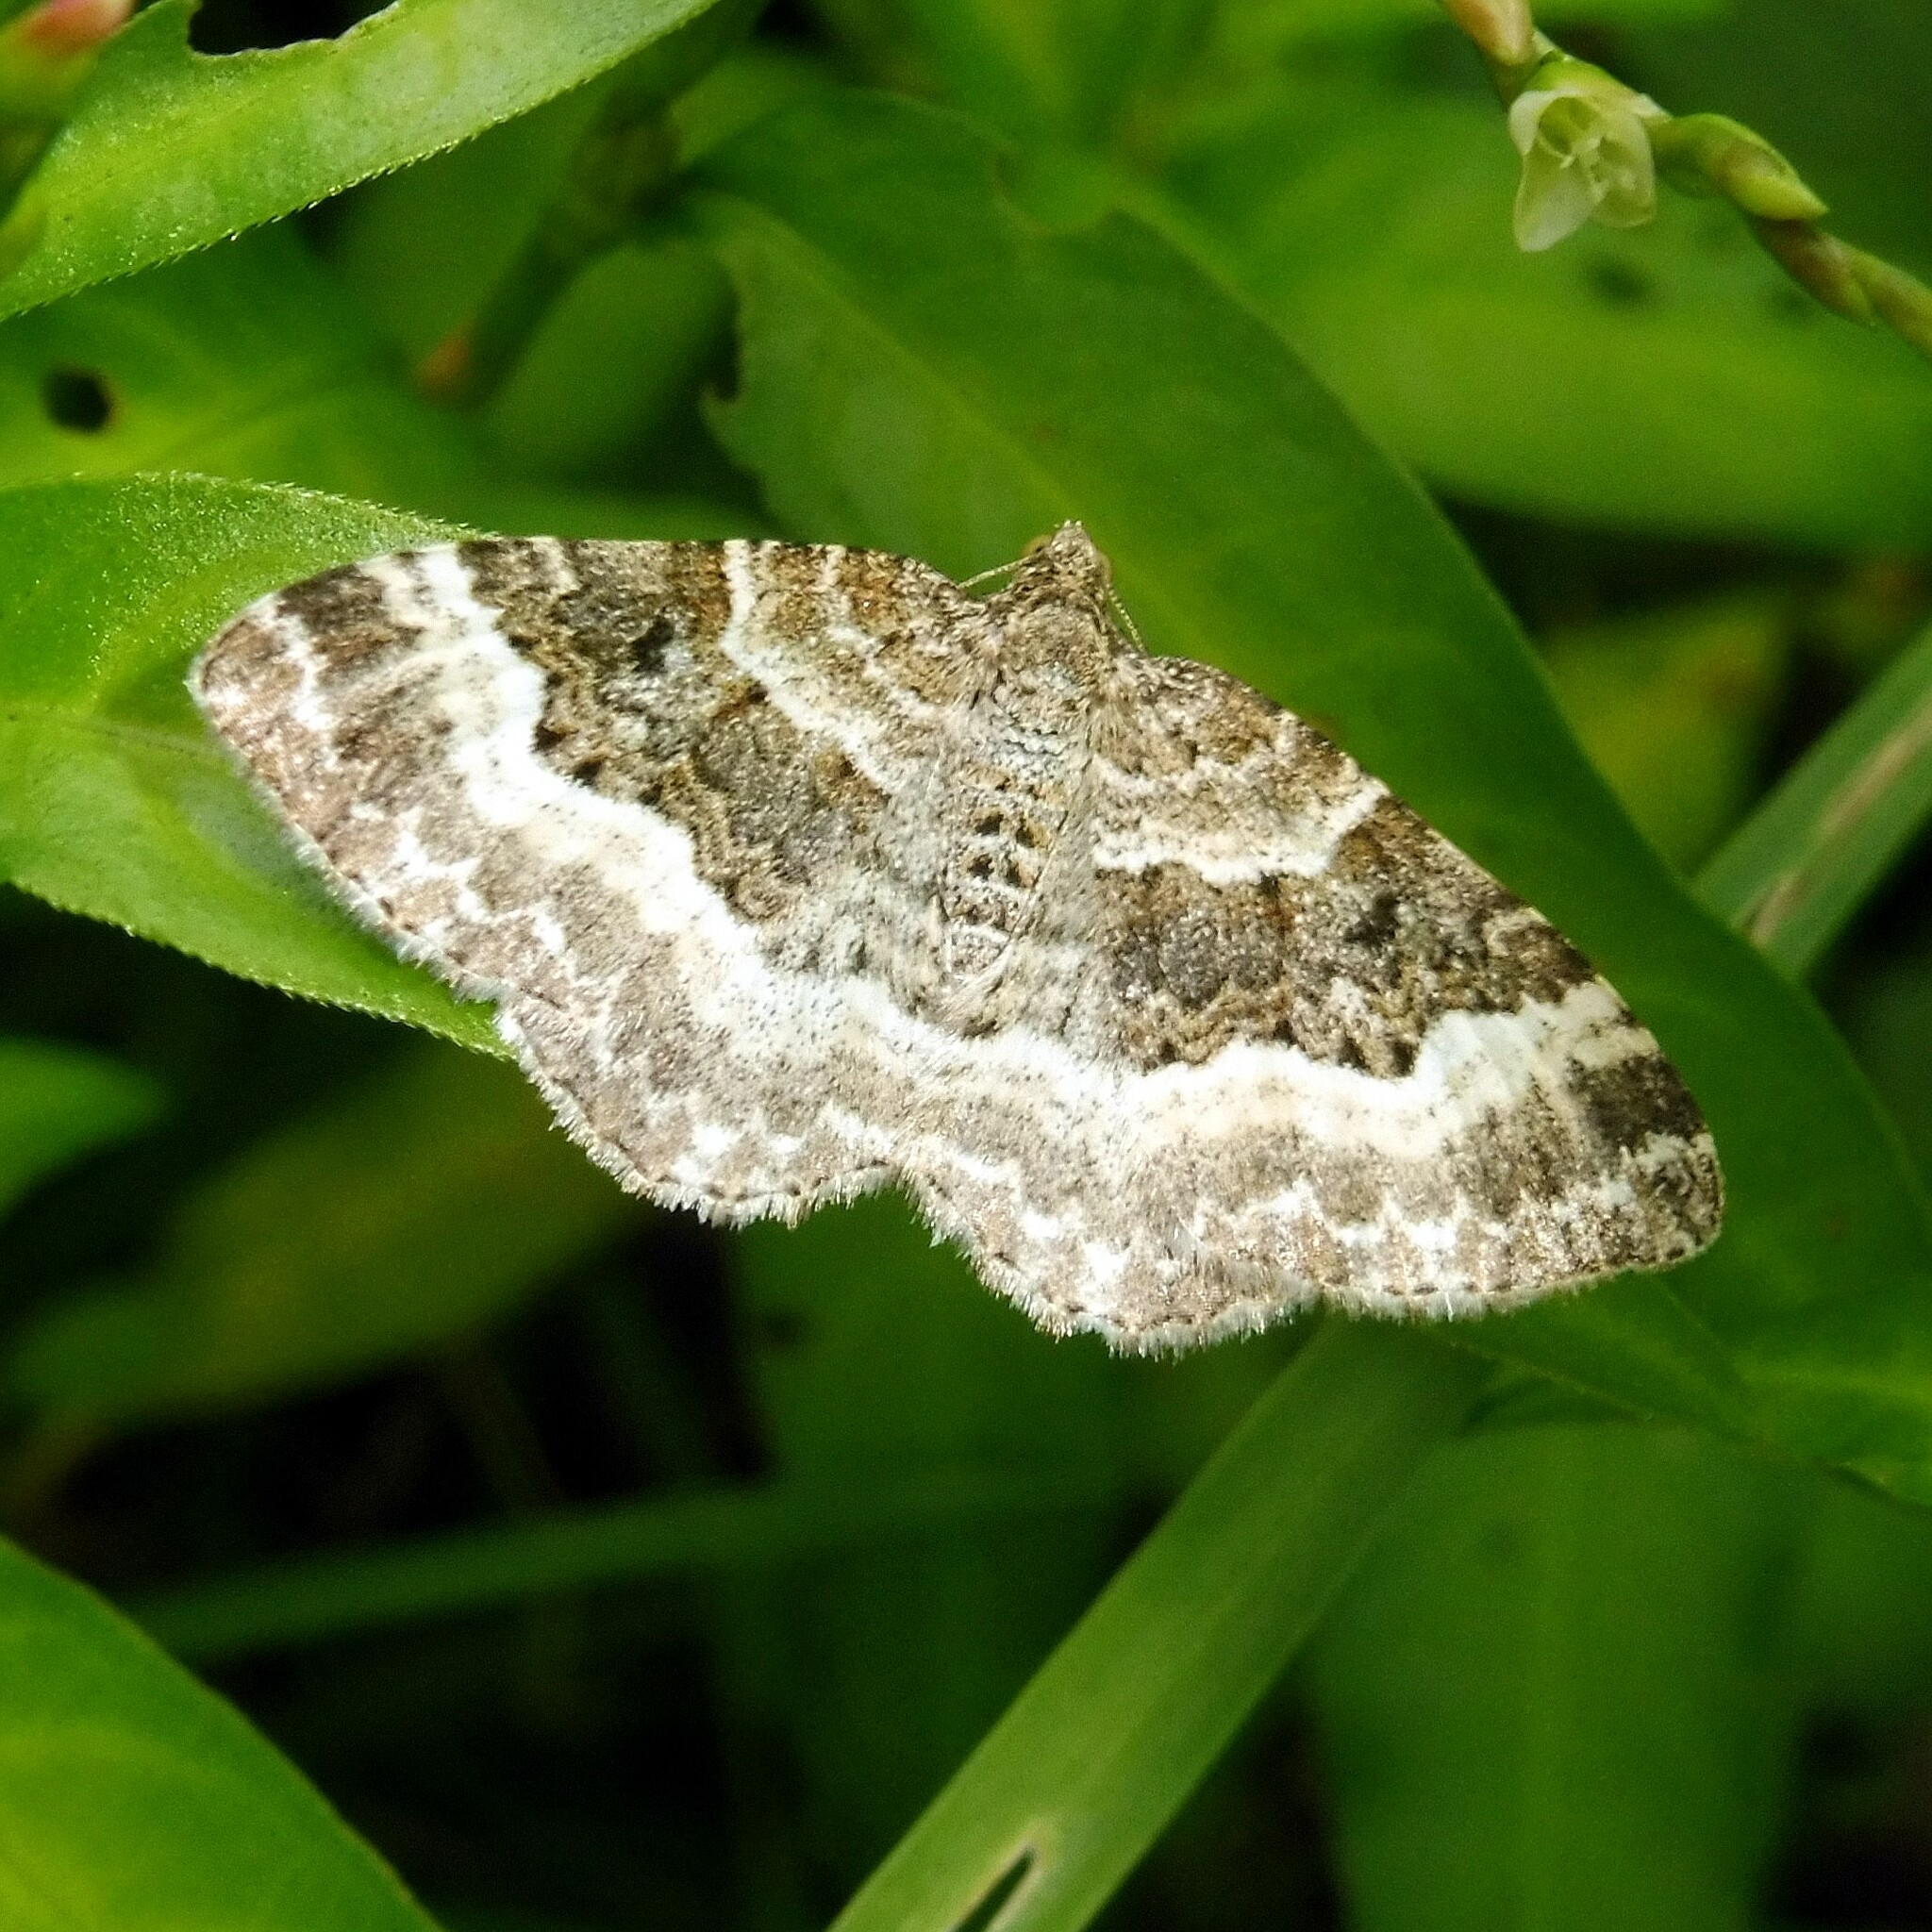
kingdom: Animalia
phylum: Arthropoda
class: Insecta
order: Lepidoptera
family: Geometridae
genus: Epirrhoe
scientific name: Epirrhoe alternata
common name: Common carpet
